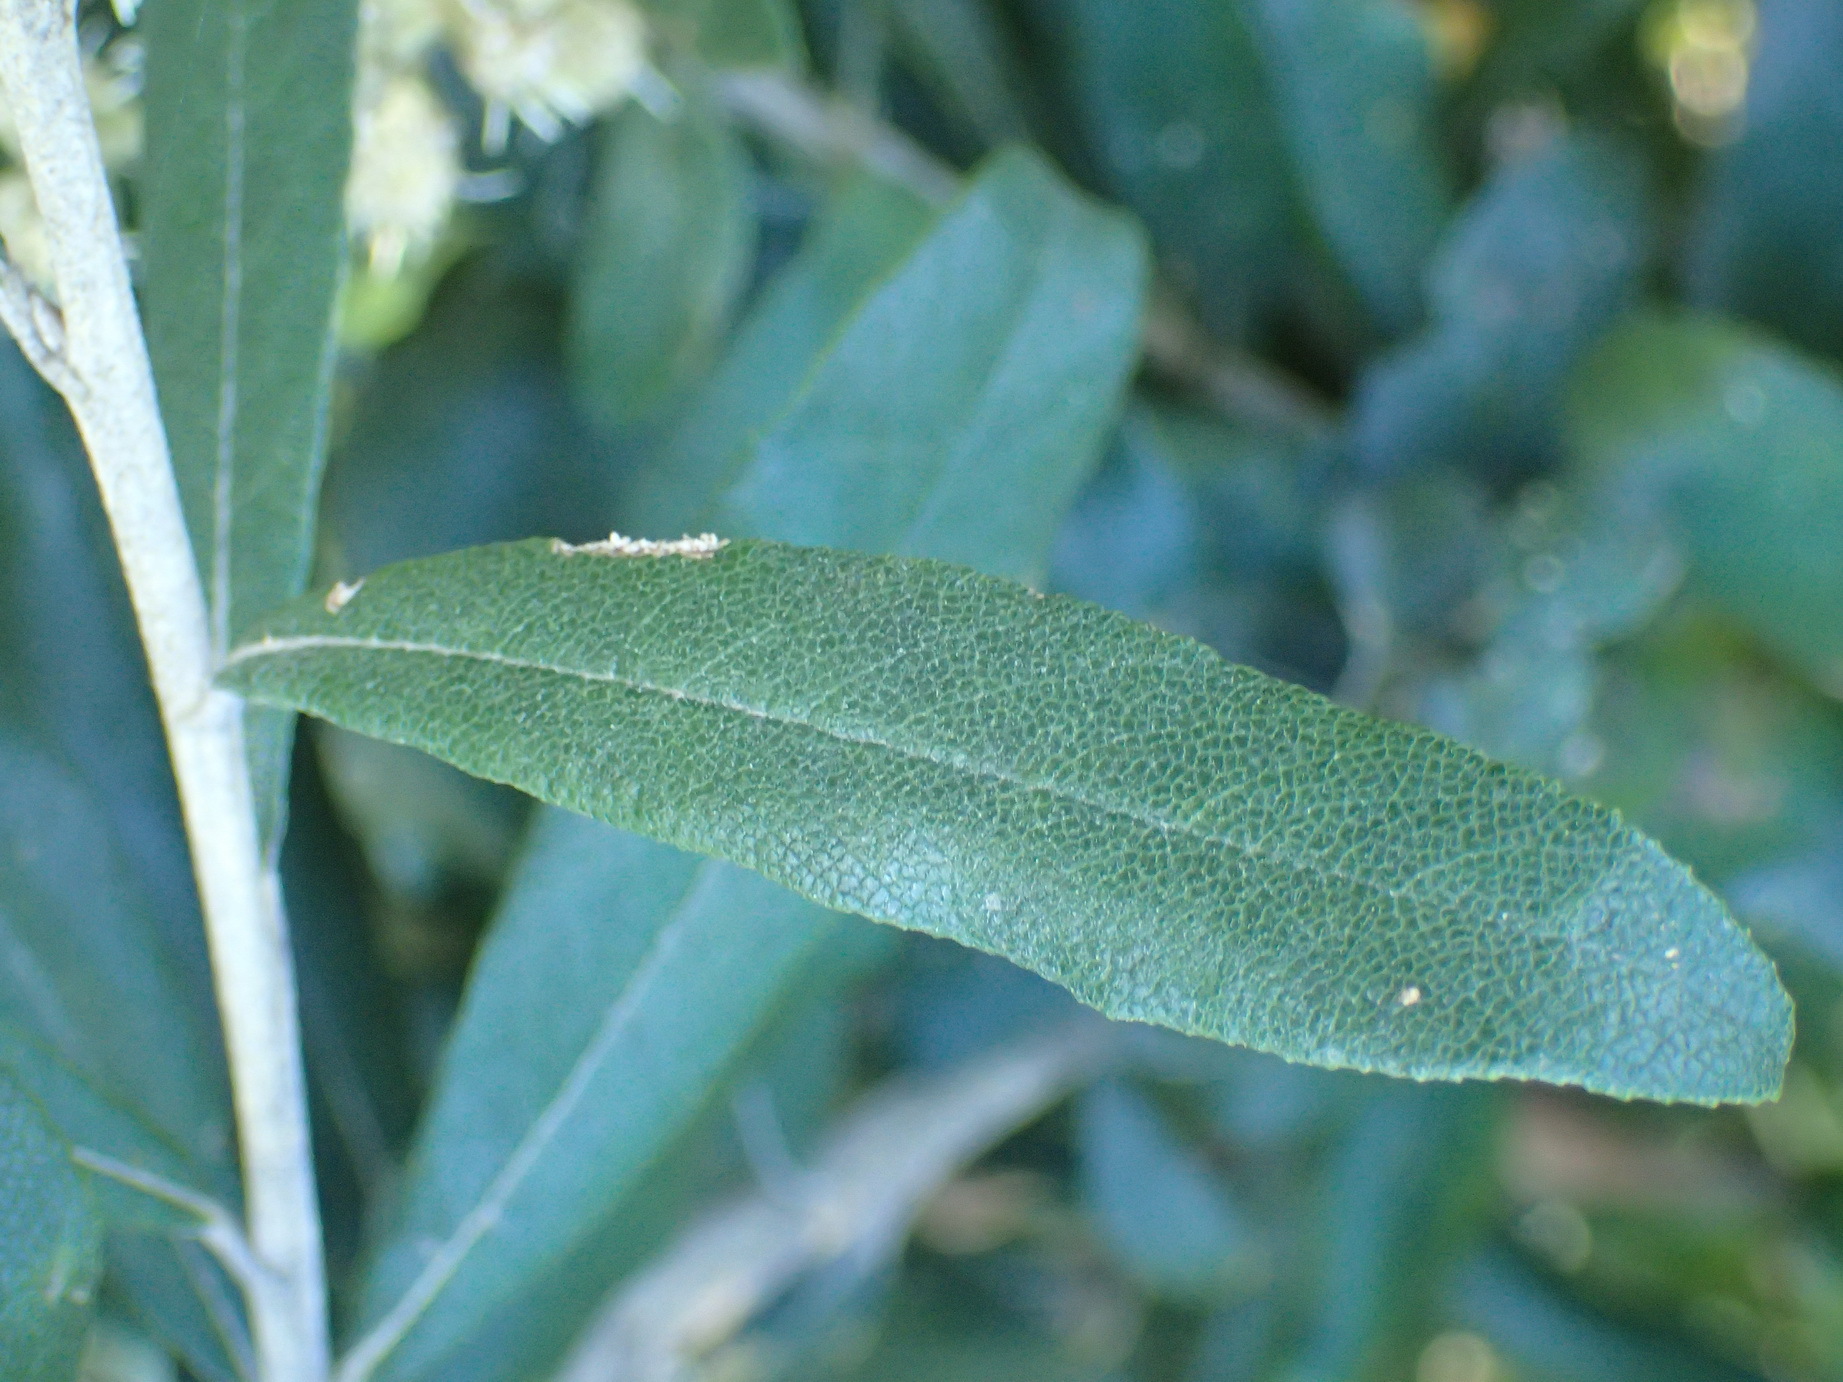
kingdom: Plantae
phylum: Tracheophyta
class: Magnoliopsida
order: Asterales
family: Asteraceae
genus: Tarchonanthus
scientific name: Tarchonanthus littoralis
